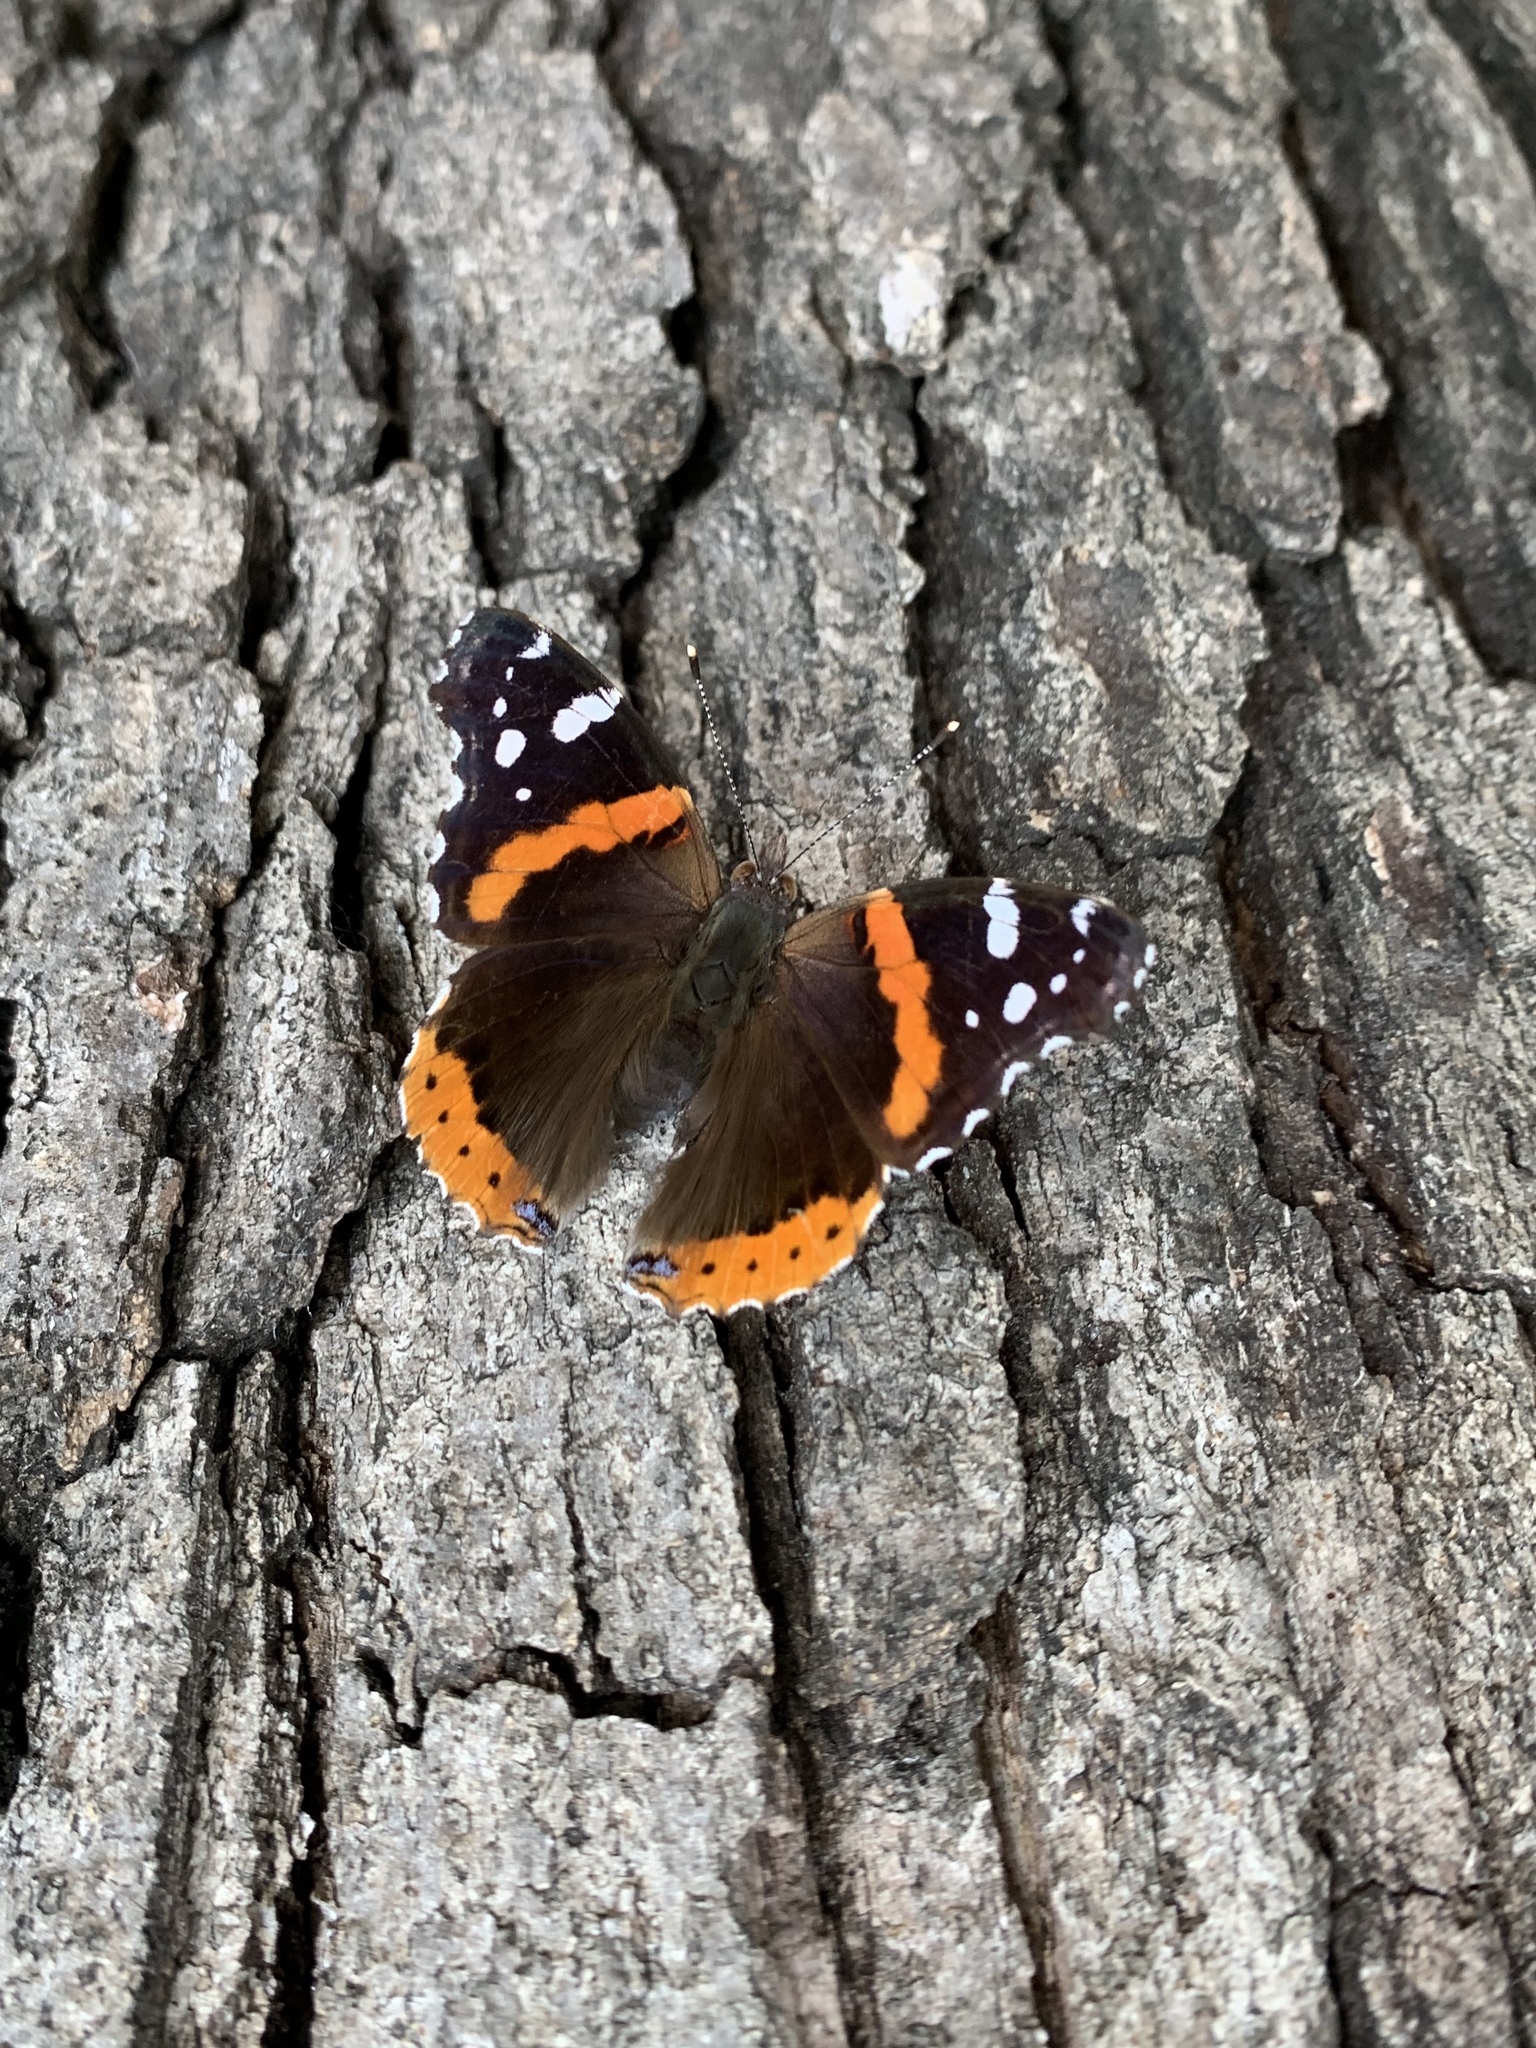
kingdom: Animalia
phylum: Arthropoda
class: Insecta
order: Lepidoptera
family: Nymphalidae
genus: Vanessa
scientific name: Vanessa atalanta
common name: Red admiral
